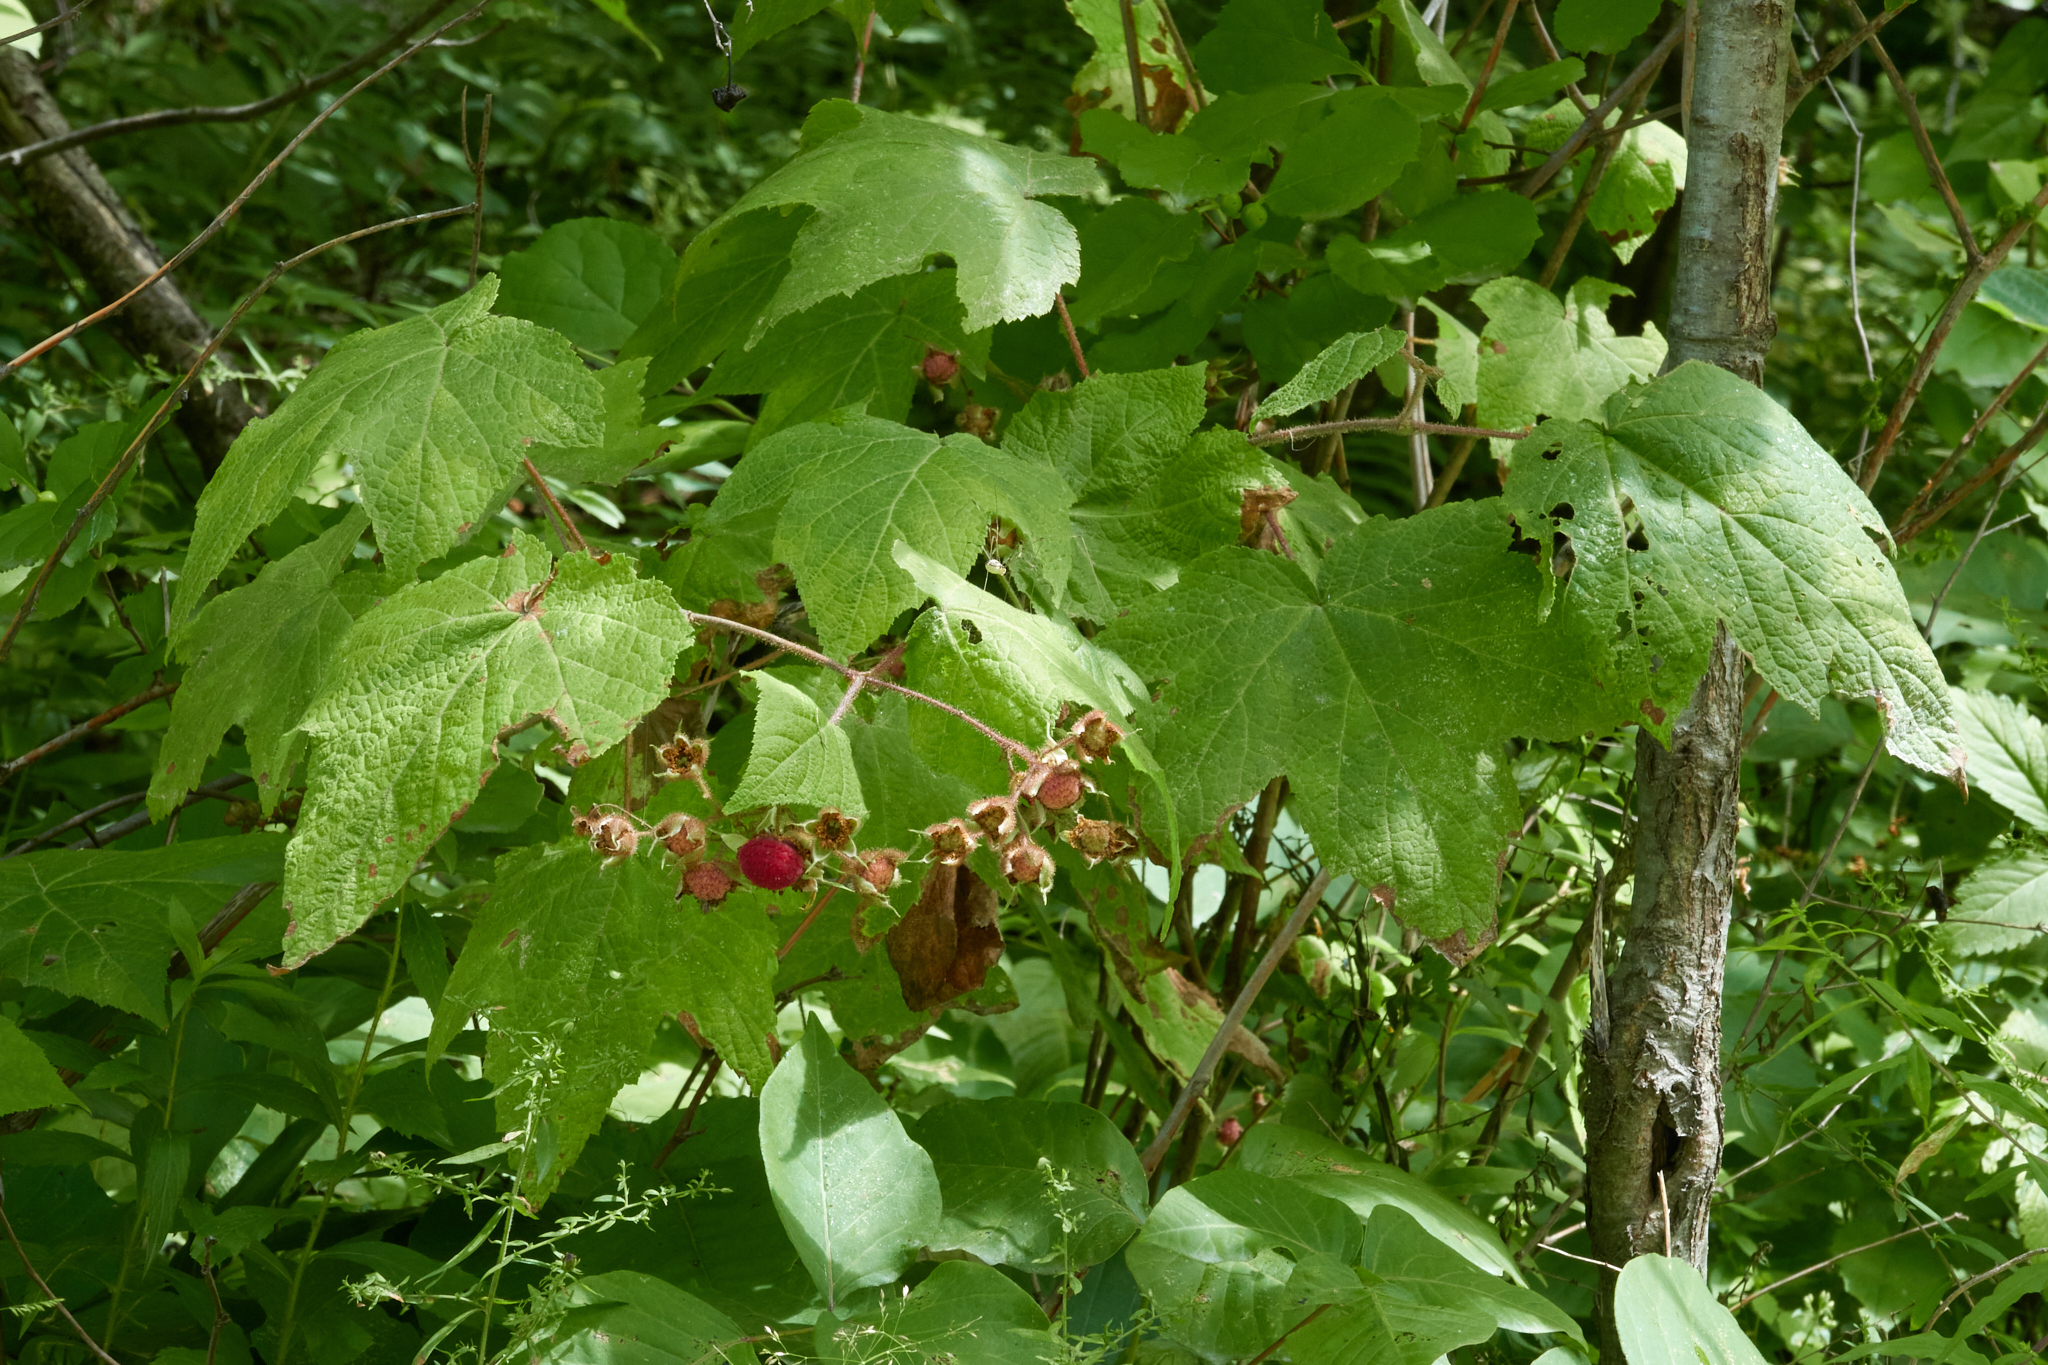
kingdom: Plantae
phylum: Tracheophyta
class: Magnoliopsida
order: Rosales
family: Rosaceae
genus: Rubus
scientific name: Rubus odoratus
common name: Purple-flowered raspberry
